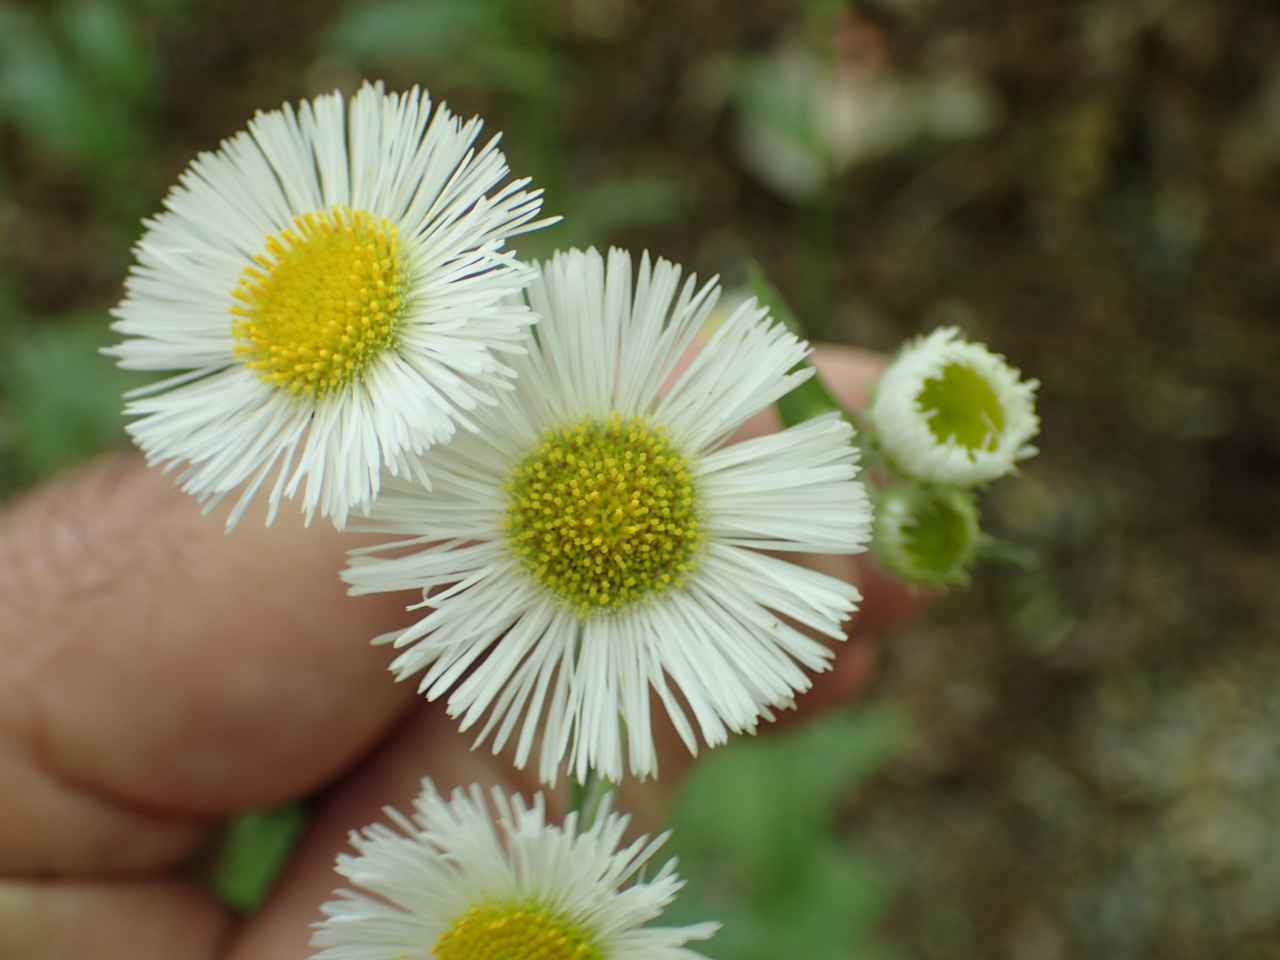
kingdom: Plantae
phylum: Tracheophyta
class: Magnoliopsida
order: Asterales
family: Asteraceae
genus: Erigeron
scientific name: Erigeron philadelphicus
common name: Robin's-plantain
